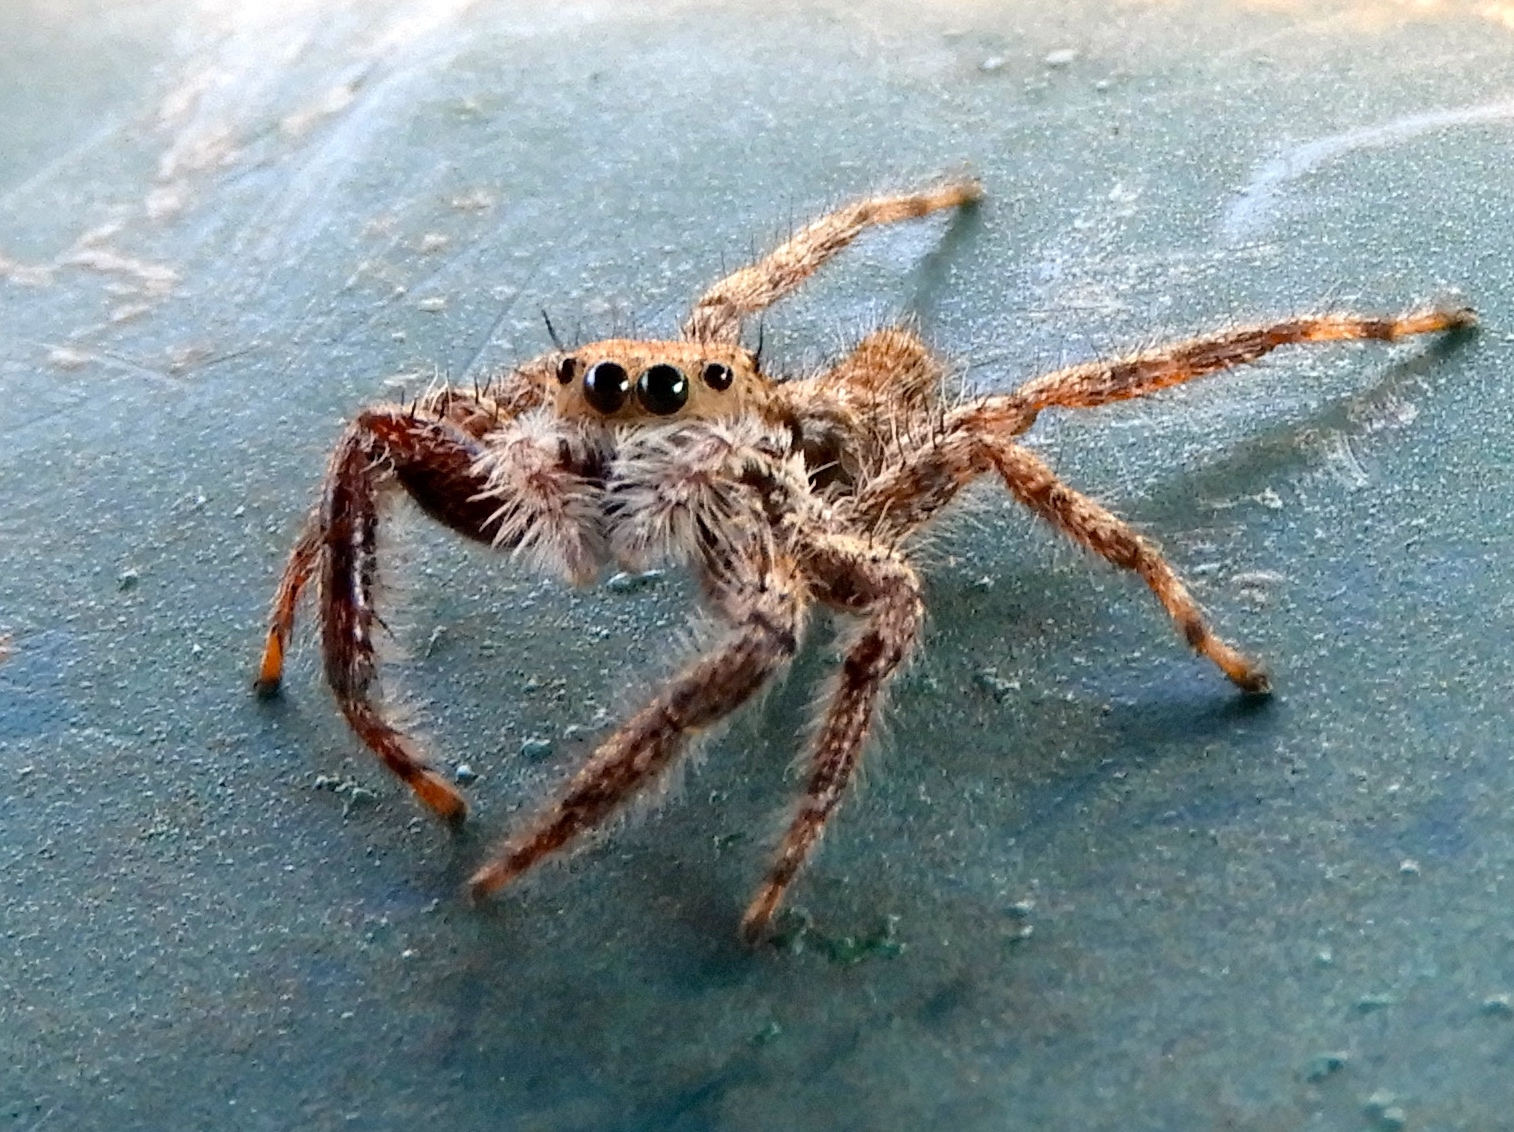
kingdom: Animalia
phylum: Arthropoda
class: Arachnida
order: Araneae
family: Salticidae
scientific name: Salticidae
